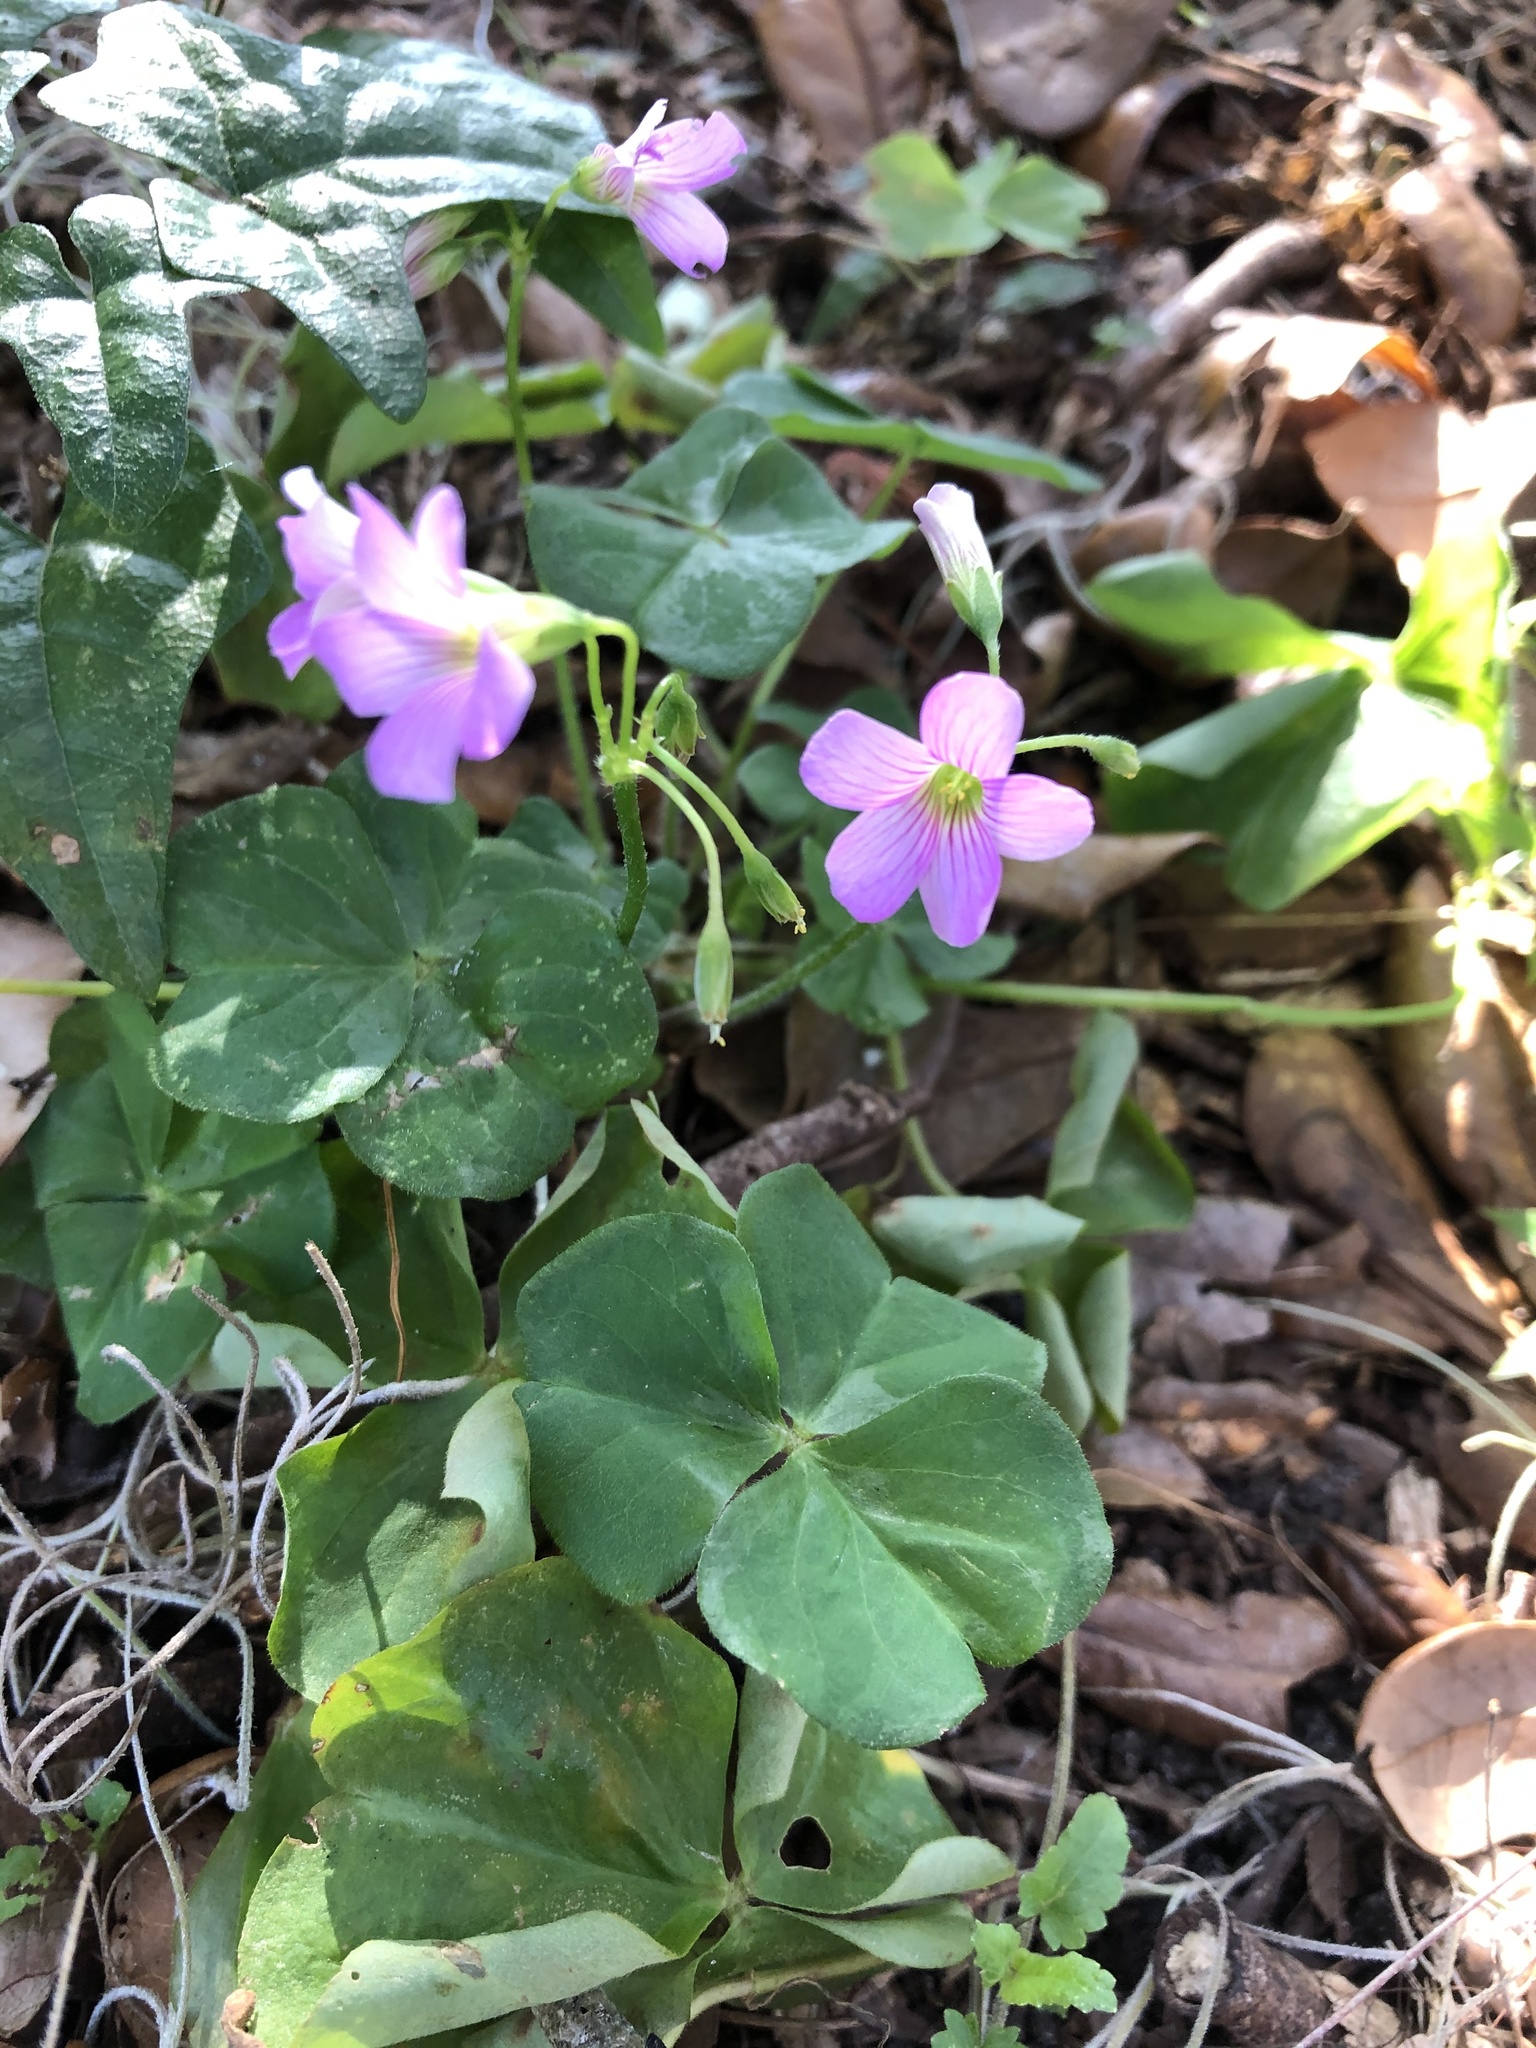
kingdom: Plantae
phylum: Tracheophyta
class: Magnoliopsida
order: Oxalidales
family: Oxalidaceae
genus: Oxalis
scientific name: Oxalis debilis
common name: Large-flowered pink-sorrel
